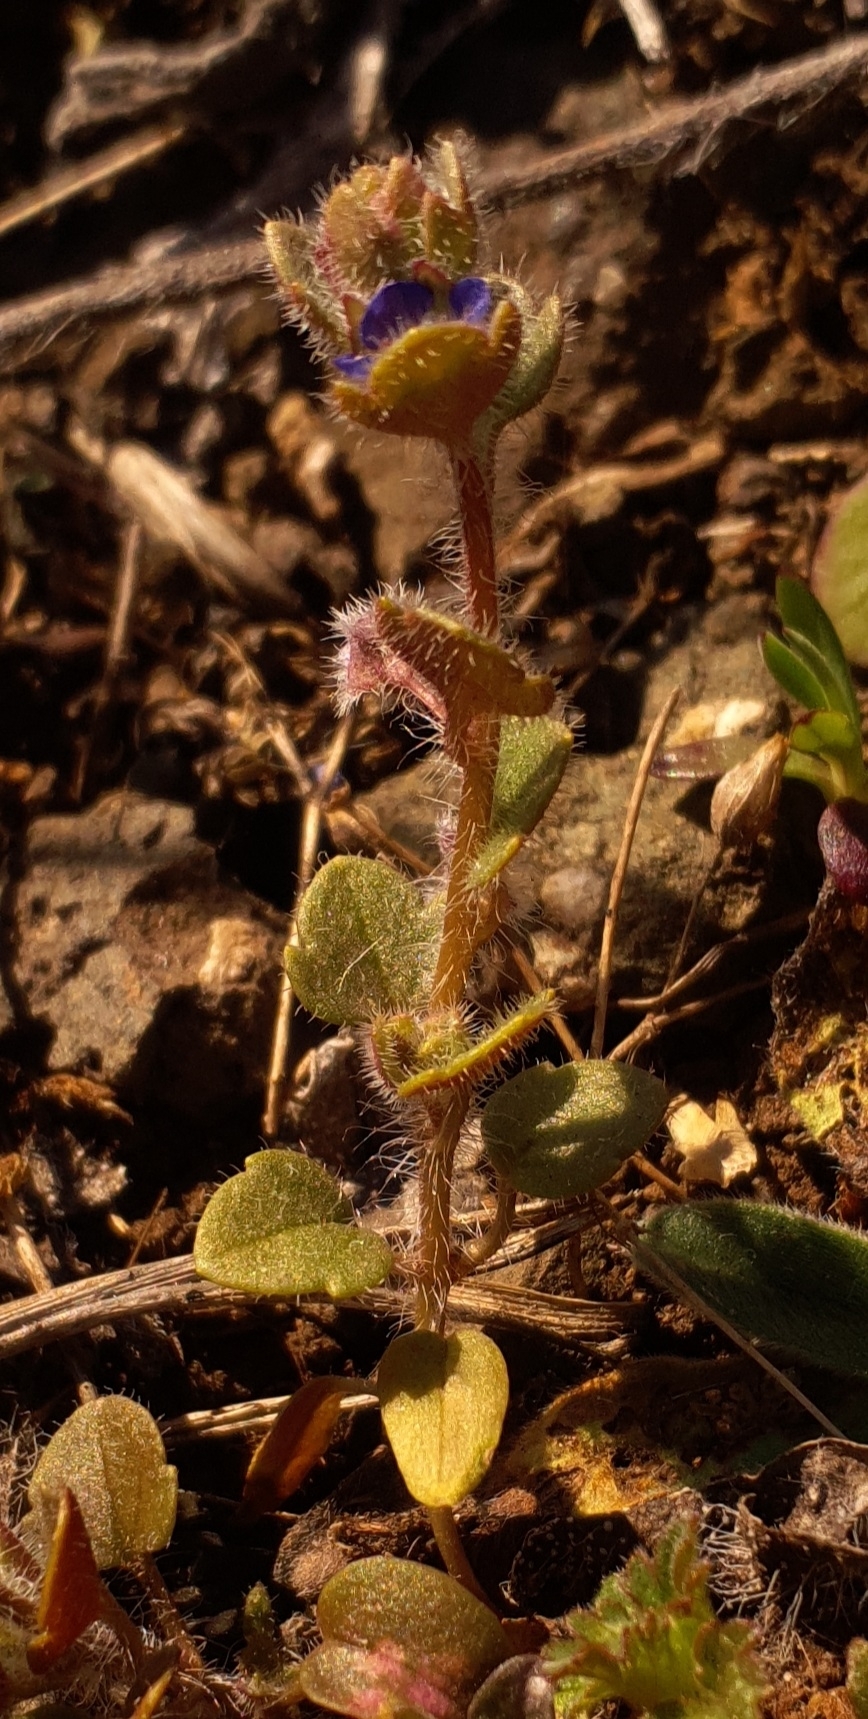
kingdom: Plantae
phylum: Tracheophyta
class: Magnoliopsida
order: Lamiales
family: Plantaginaceae
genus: Veronica
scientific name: Veronica triloba
